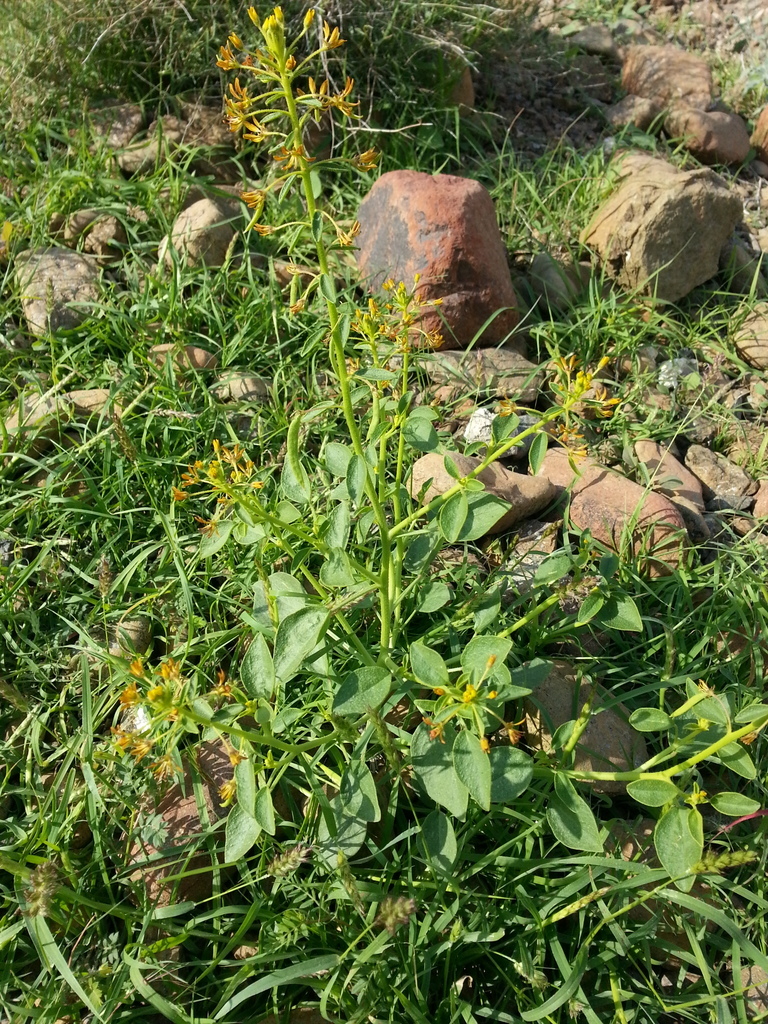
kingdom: Plantae
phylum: Tracheophyta
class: Magnoliopsida
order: Brassicales
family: Cleomaceae
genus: Cleome
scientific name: Cleome rupicola
